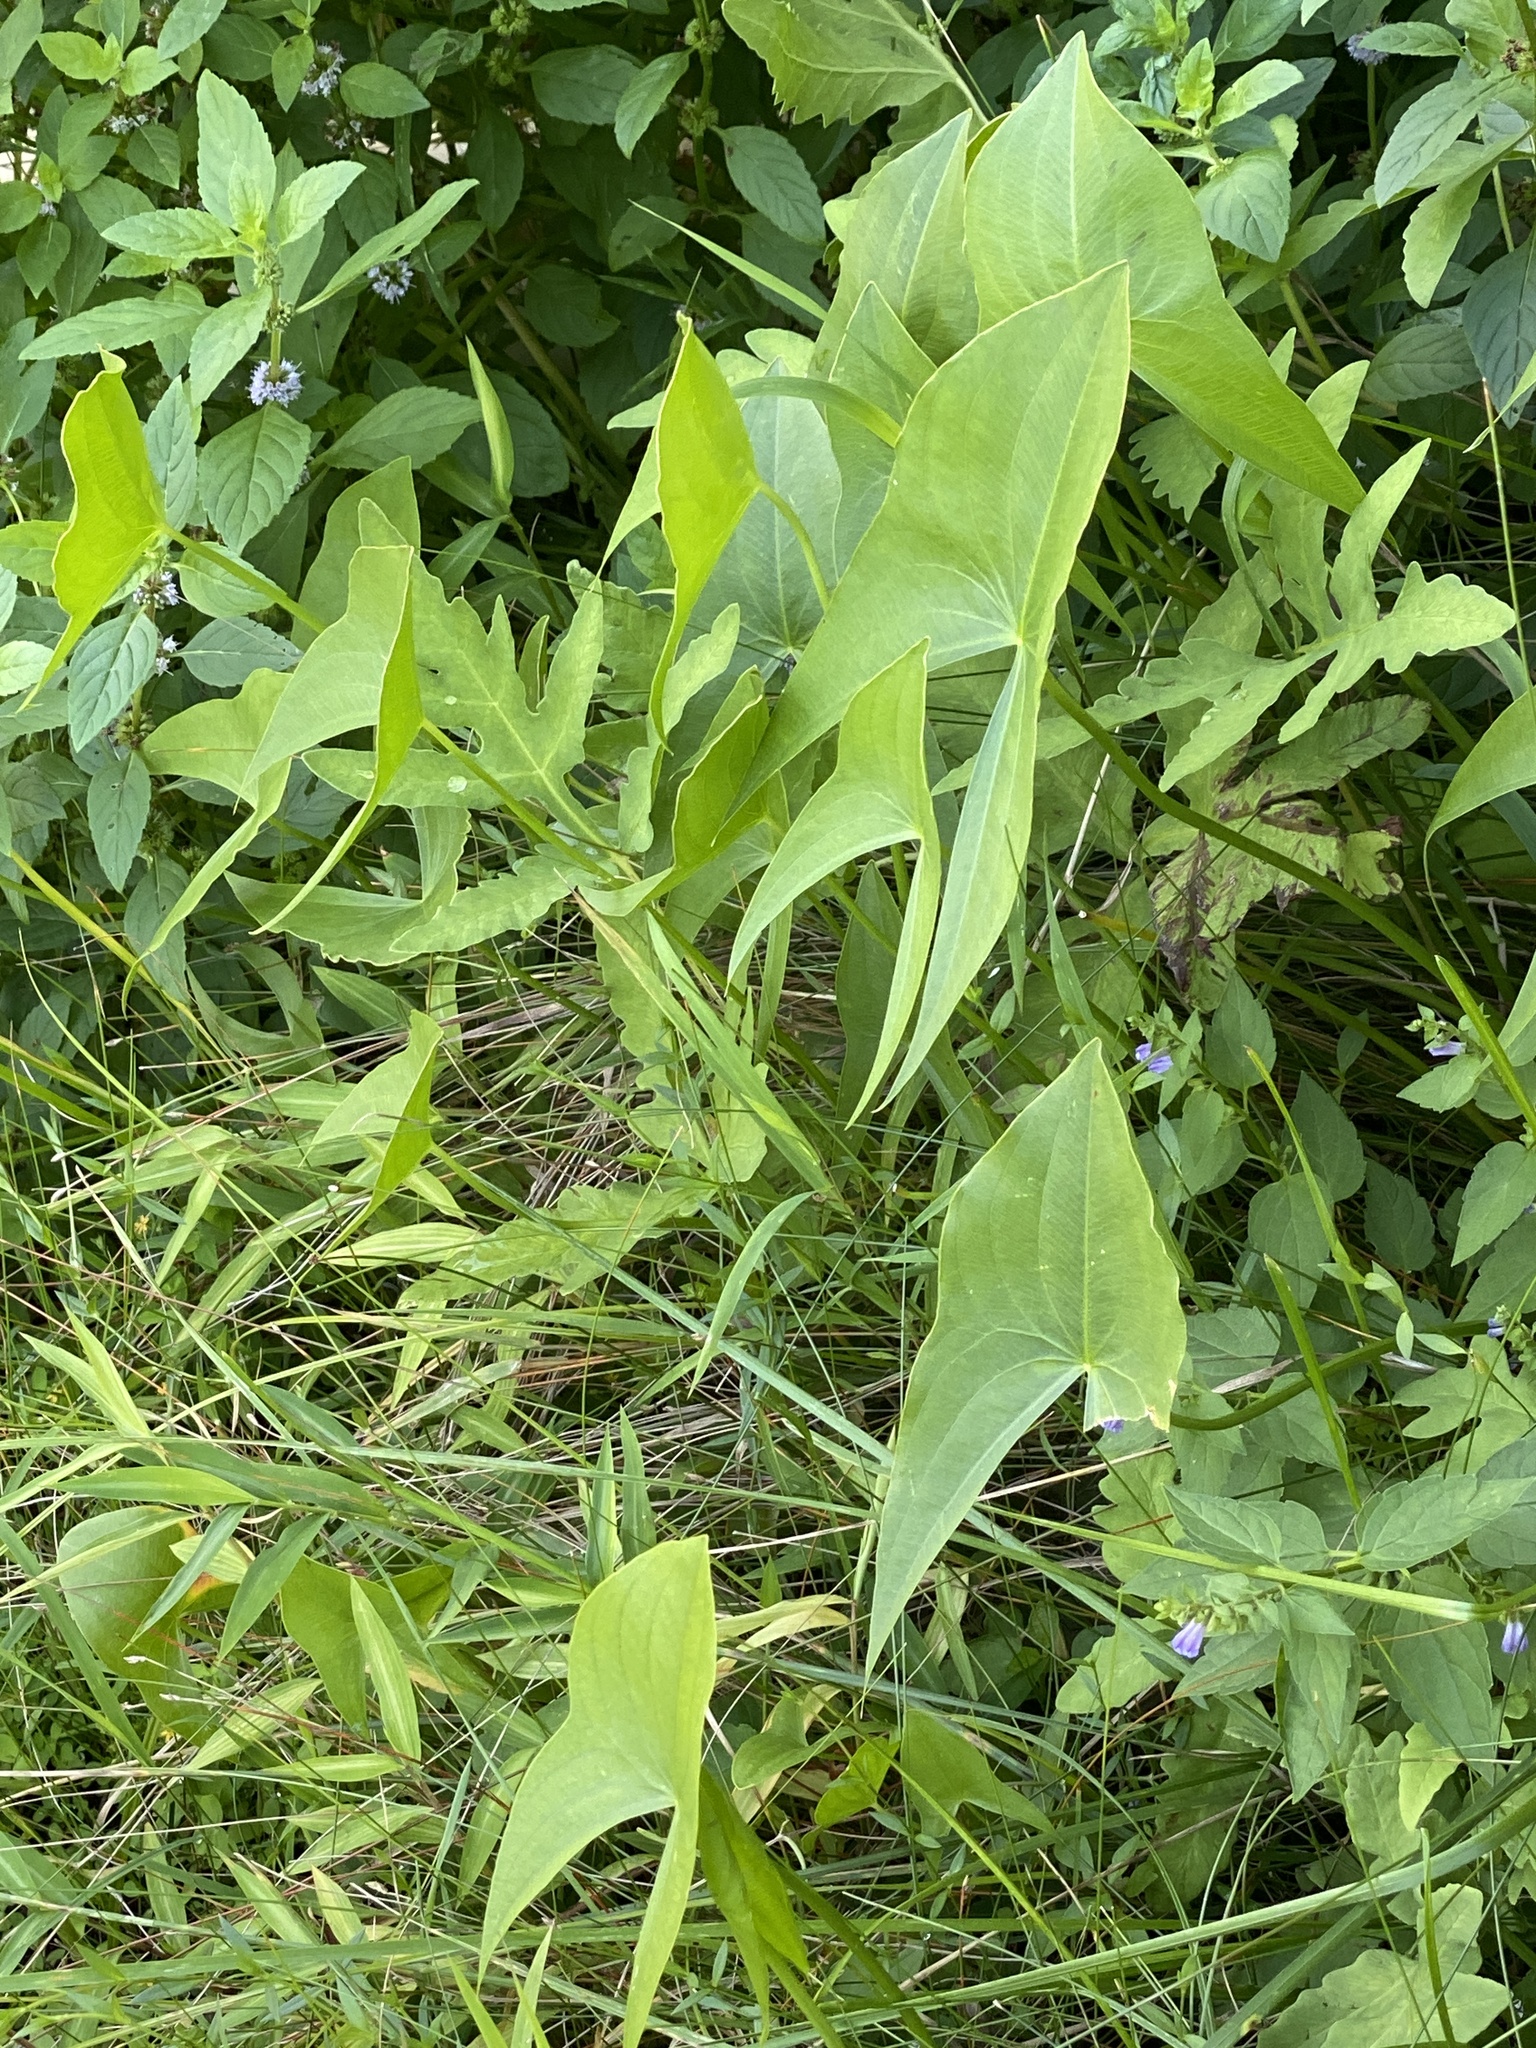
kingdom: Plantae
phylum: Tracheophyta
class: Liliopsida
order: Alismatales
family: Alismataceae
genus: Sagittaria
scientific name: Sagittaria latifolia
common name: Duck-potato
